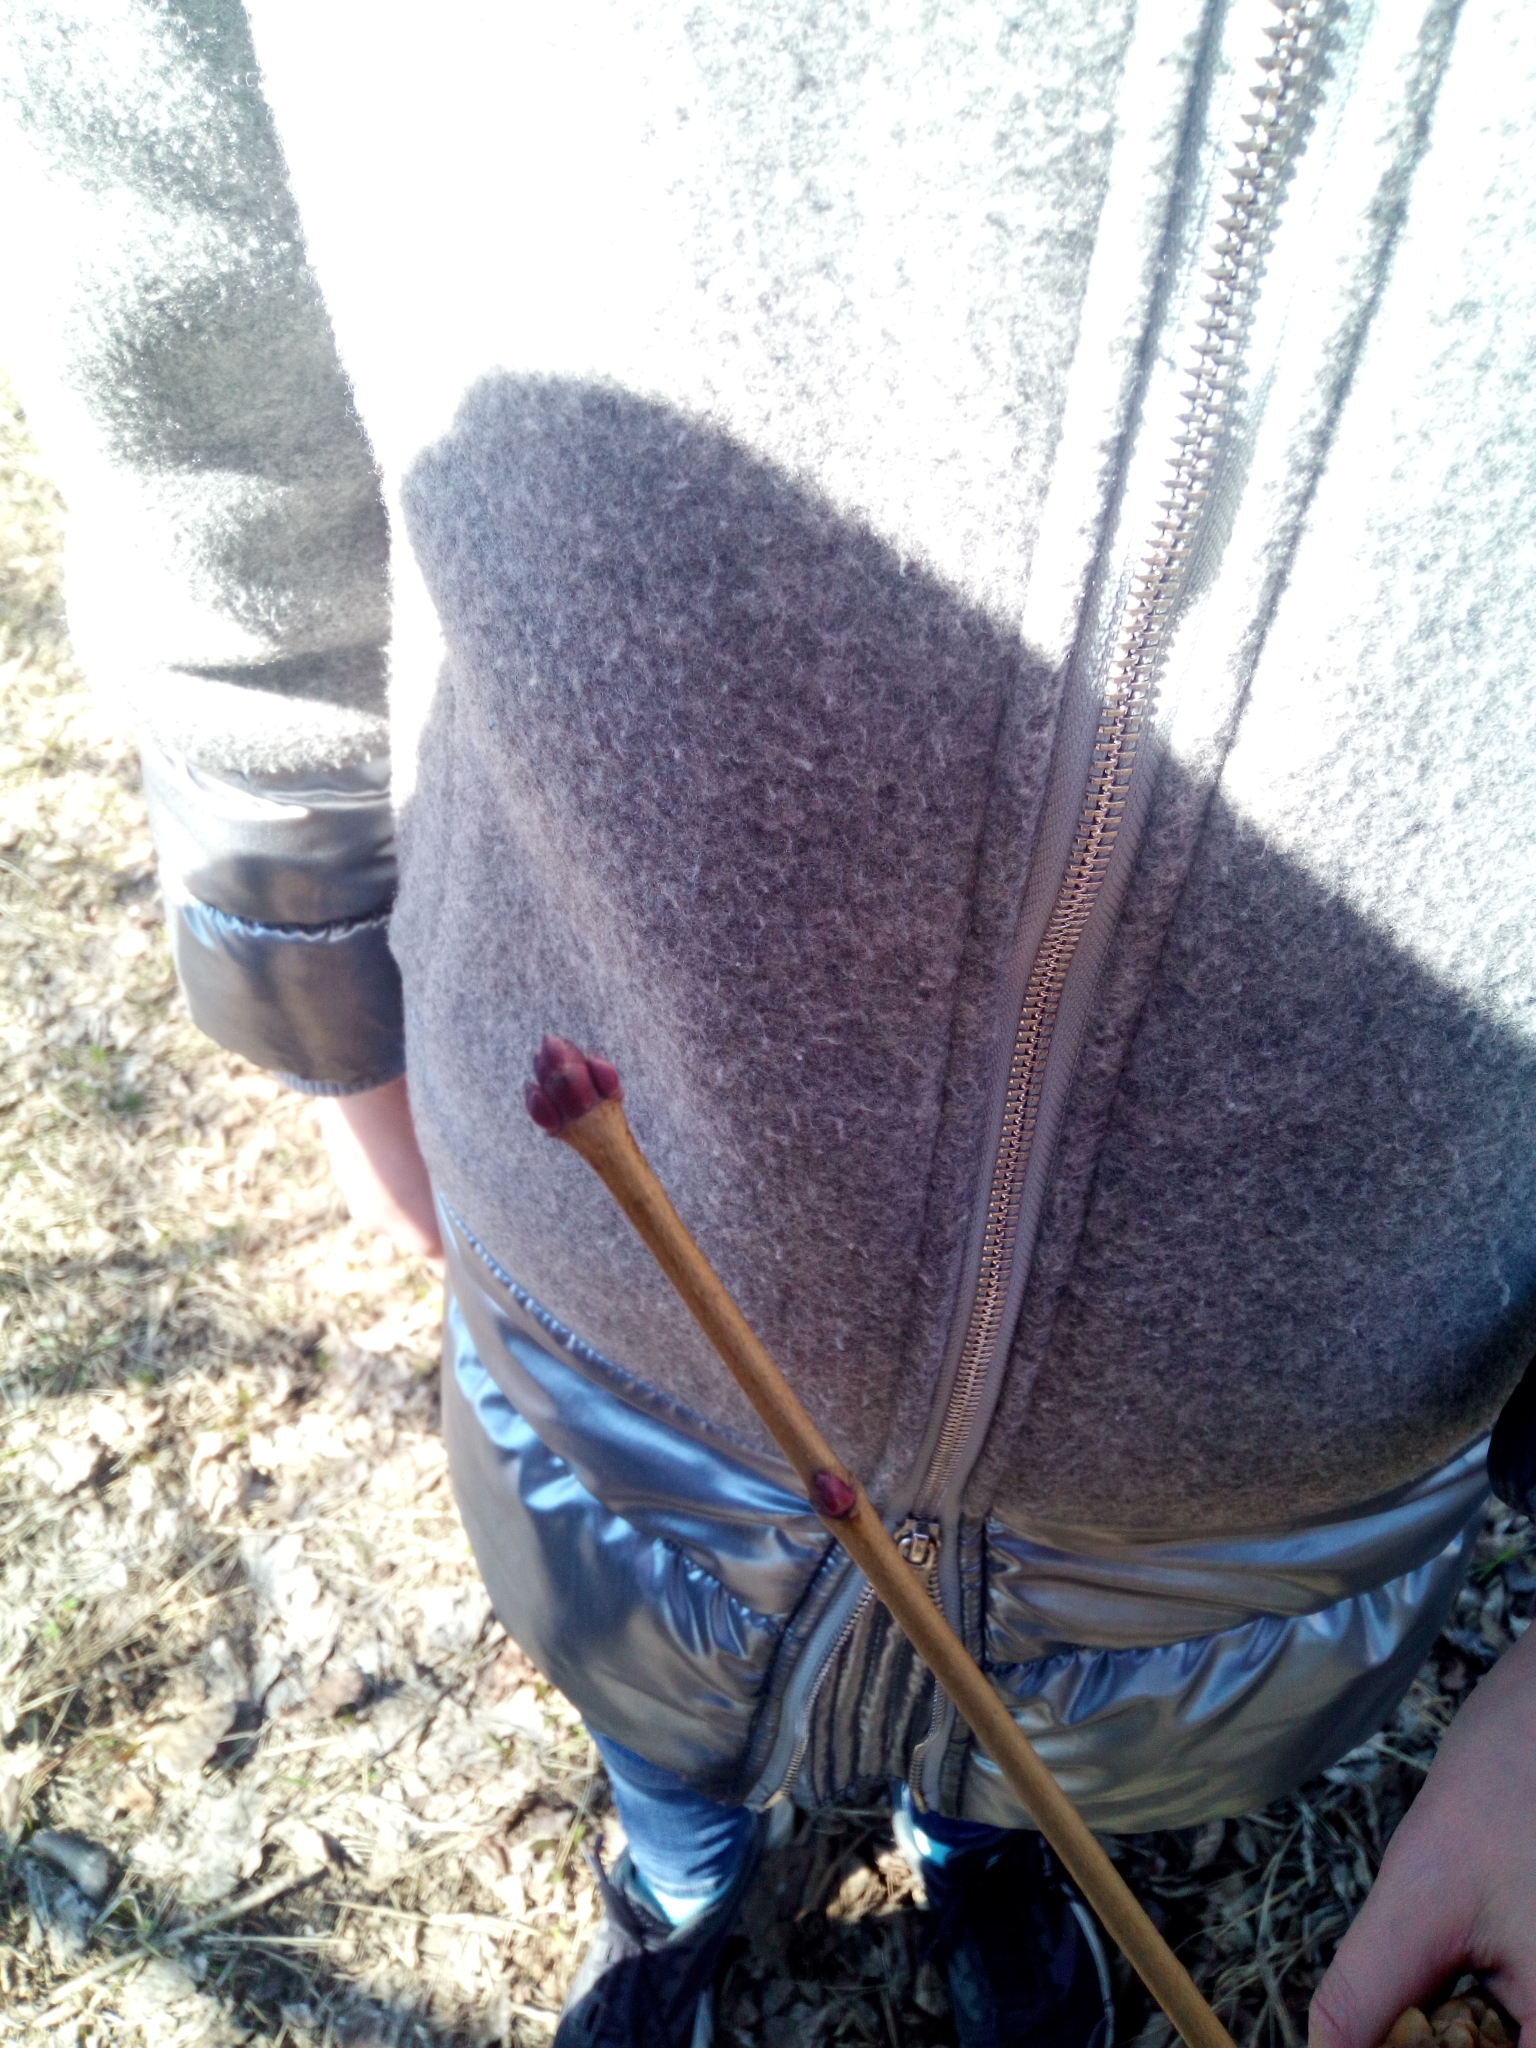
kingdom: Plantae
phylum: Tracheophyta
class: Magnoliopsida
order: Sapindales
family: Sapindaceae
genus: Acer
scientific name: Acer platanoides
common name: Norway maple
